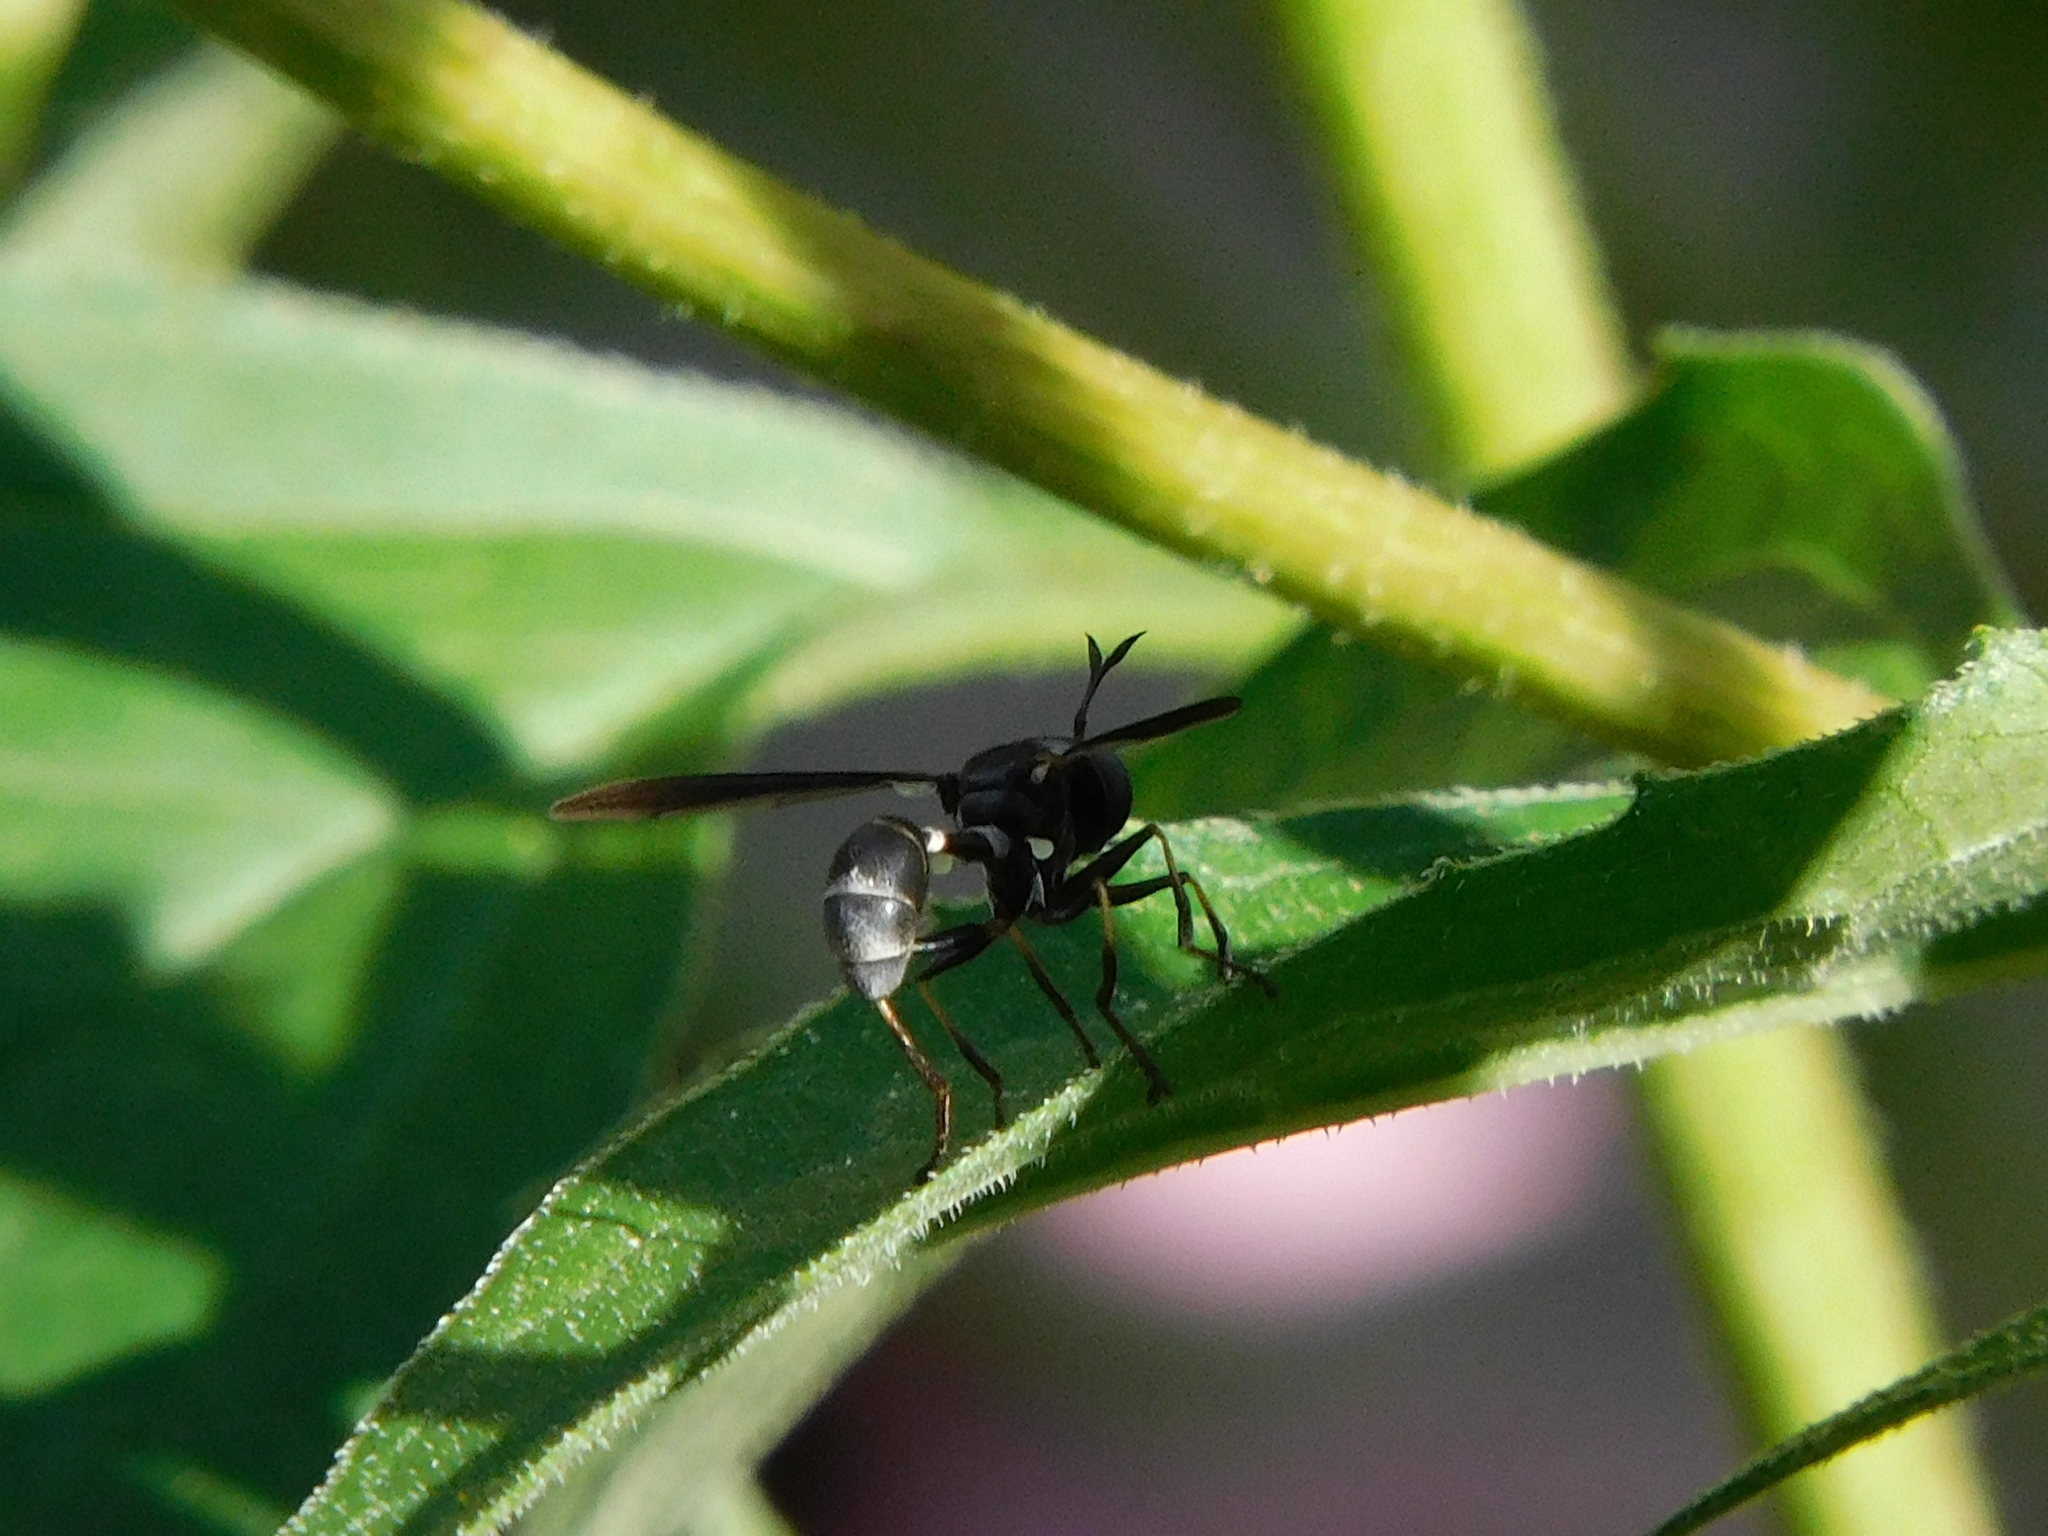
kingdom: Animalia
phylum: Arthropoda
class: Insecta
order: Diptera
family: Conopidae
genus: Physocephala
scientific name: Physocephala tibialis
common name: Common eastern physocephala
